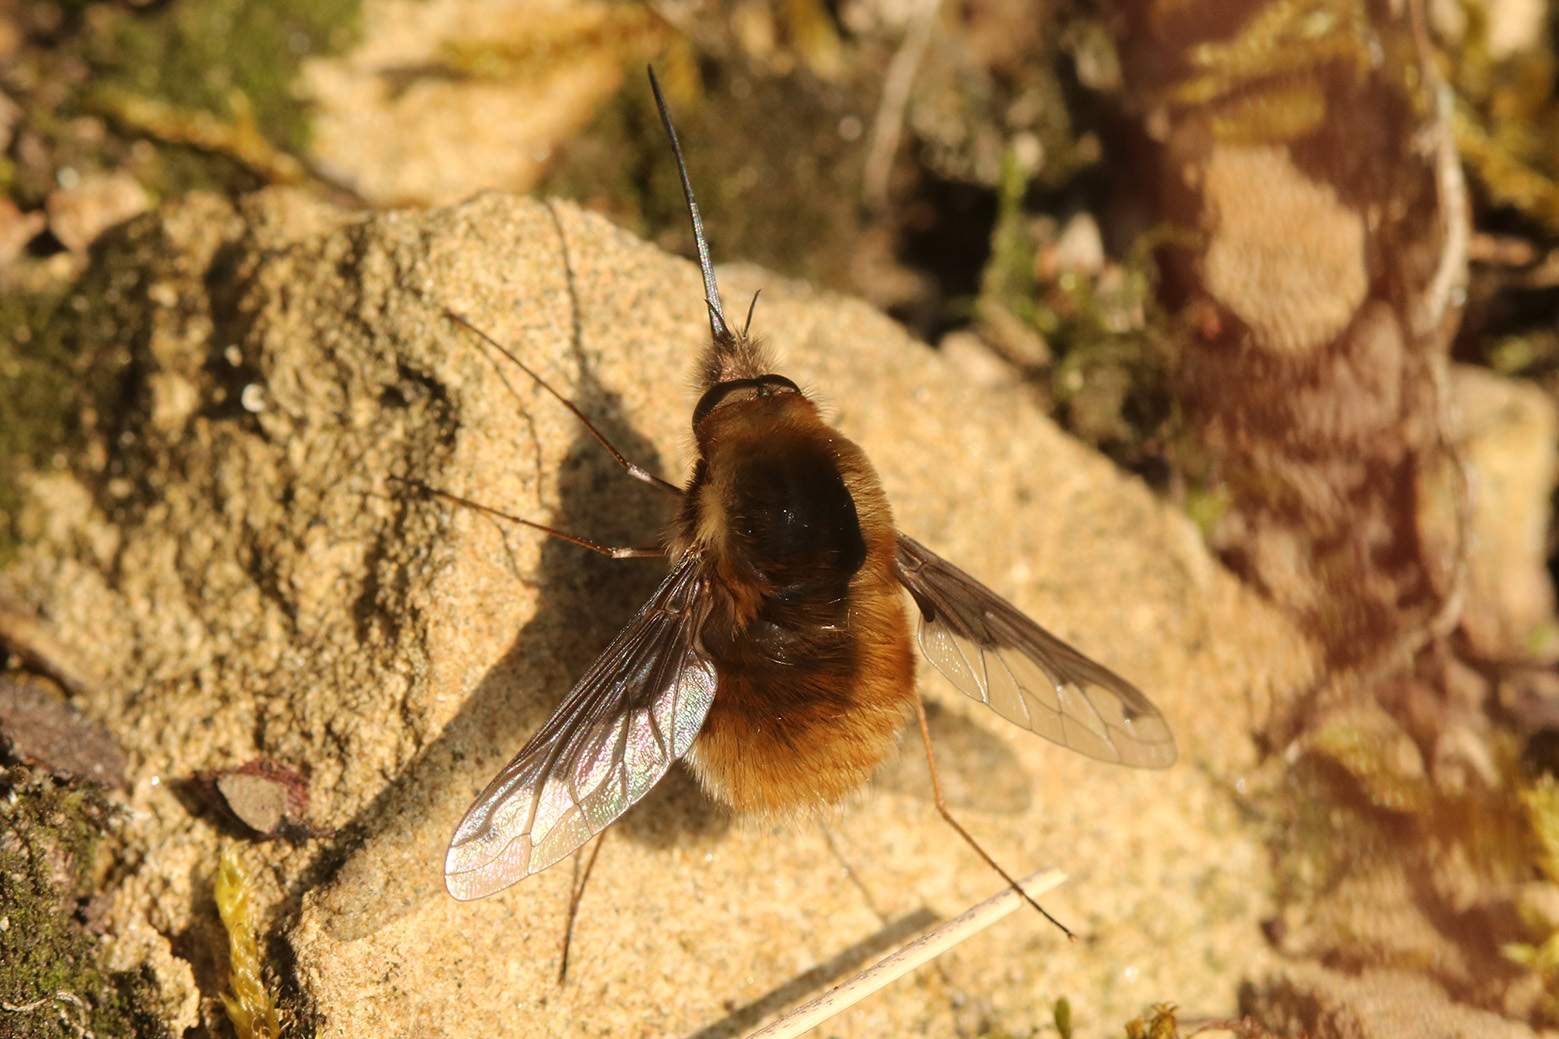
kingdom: Animalia
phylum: Arthropoda
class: Insecta
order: Diptera
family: Bombyliidae
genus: Bombylius
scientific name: Bombylius major
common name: Bee fly
